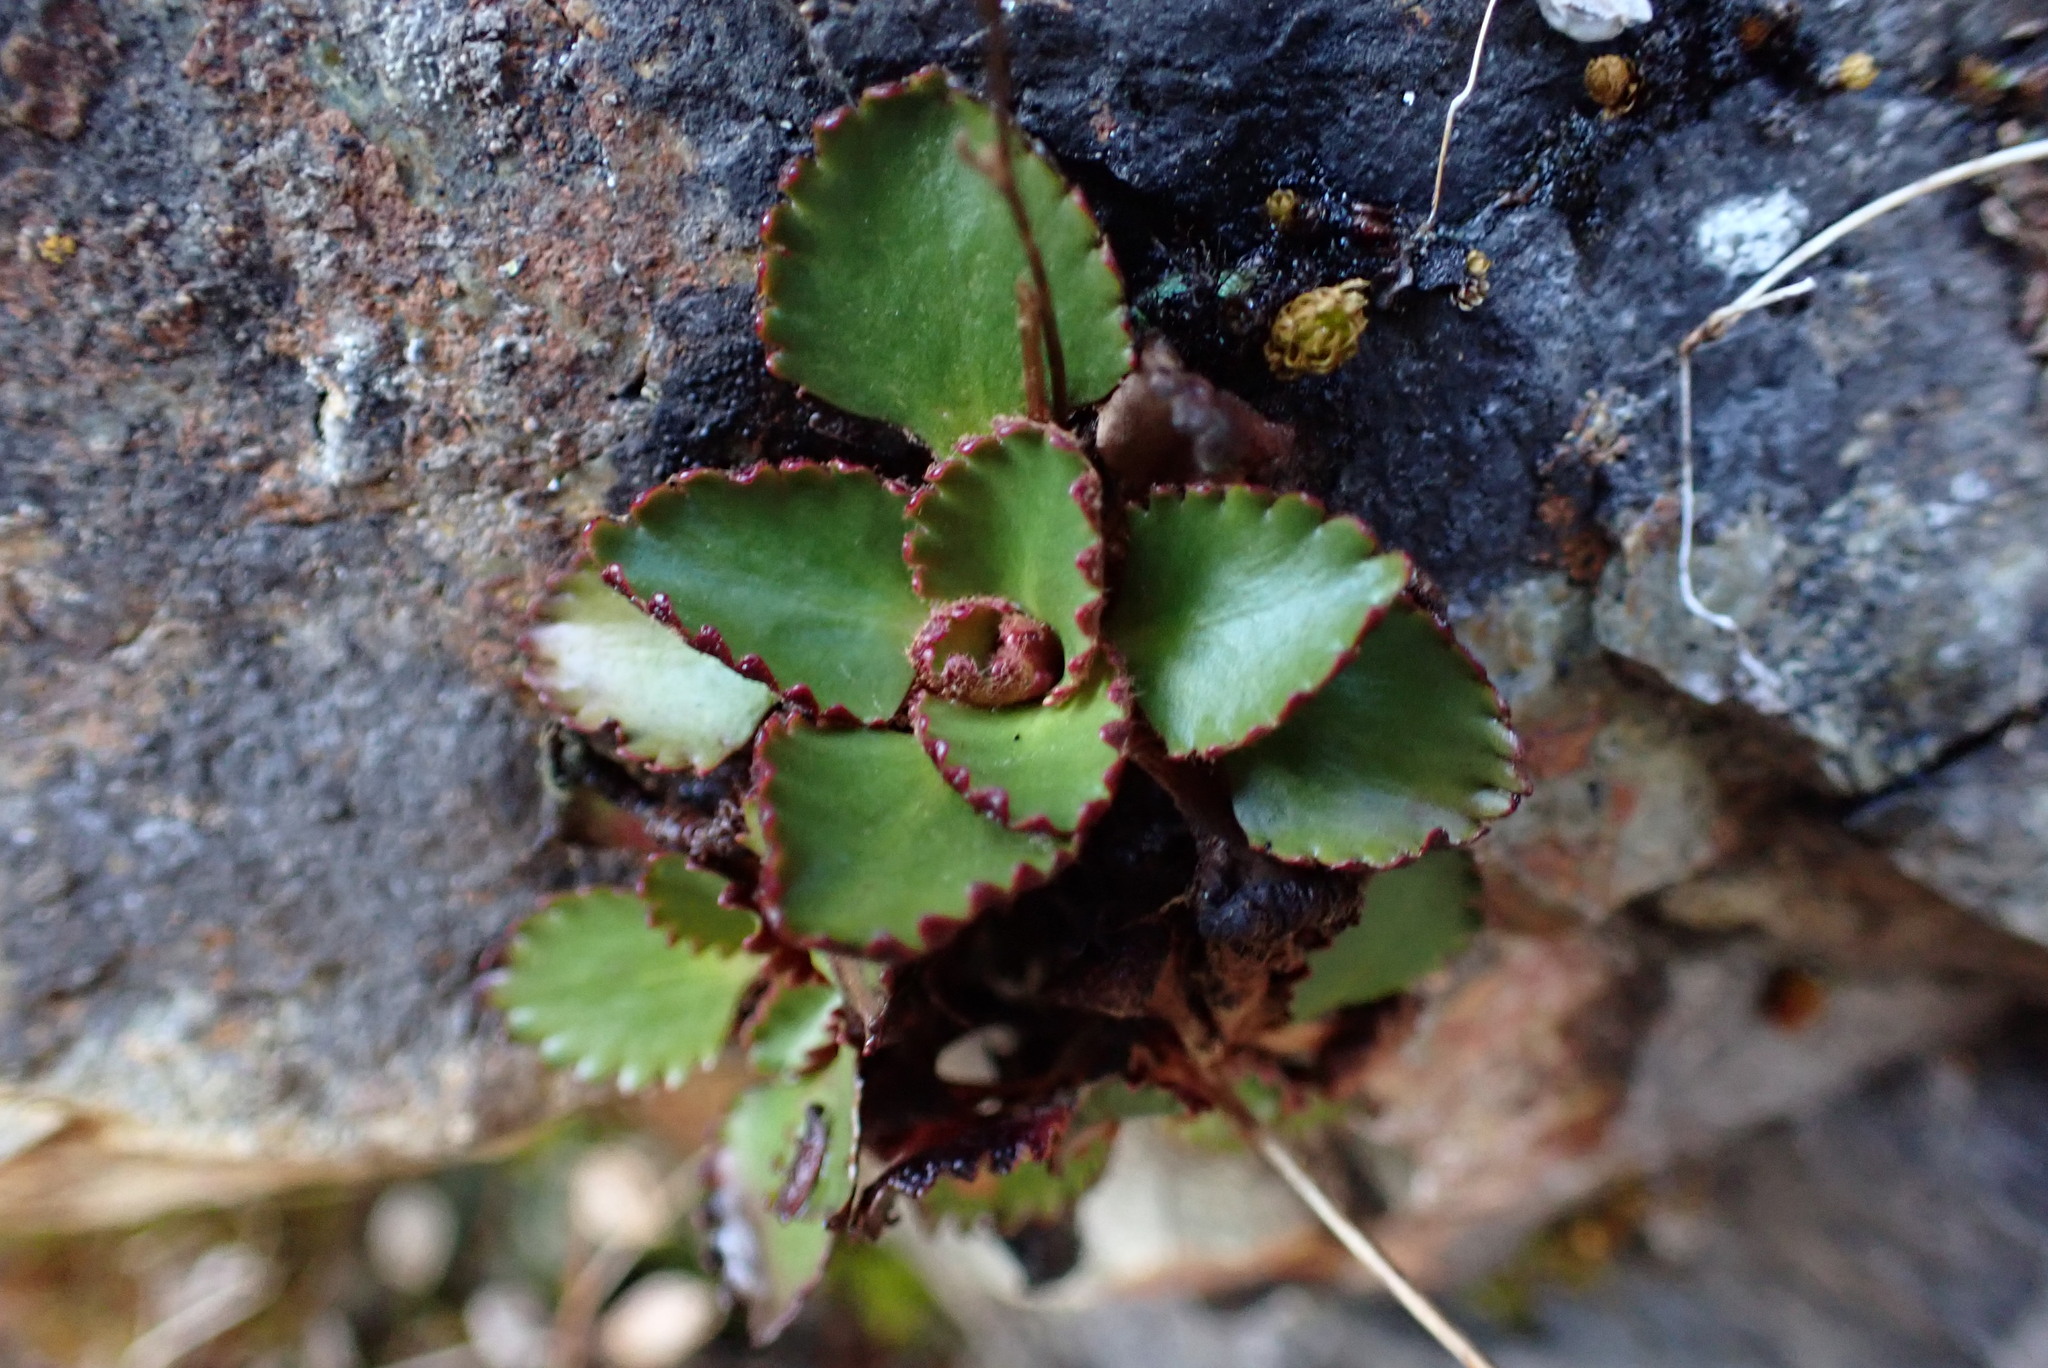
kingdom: Plantae
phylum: Tracheophyta
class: Magnoliopsida
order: Saxifragales
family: Saxifragaceae
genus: Micranthes
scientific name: Micranthes rufidula
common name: Rustyhair saxifrage
